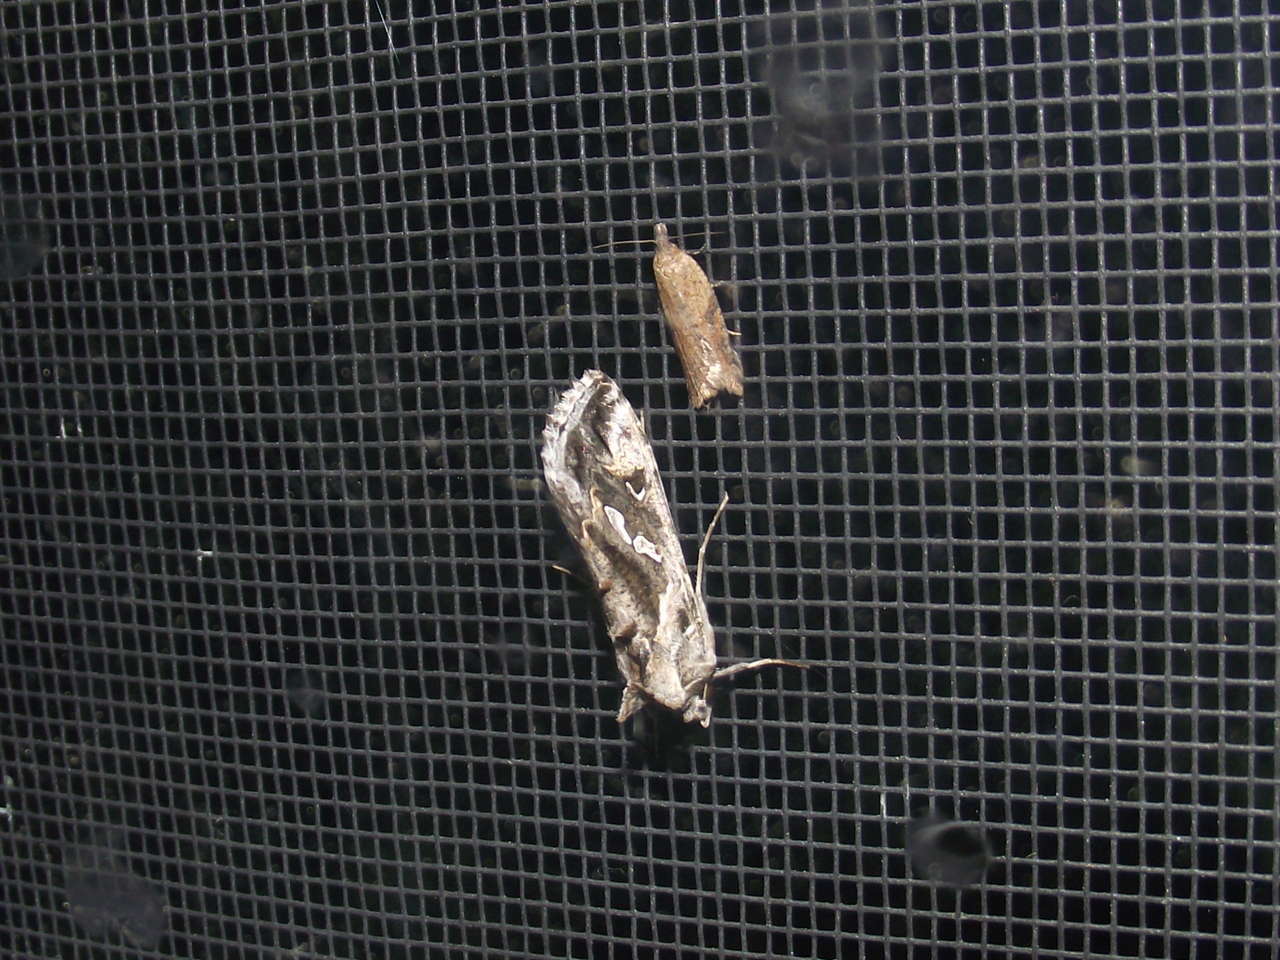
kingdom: Animalia
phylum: Arthropoda
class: Insecta
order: Lepidoptera
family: Noctuidae
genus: Chrysodeixis
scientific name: Chrysodeixis argentifera
